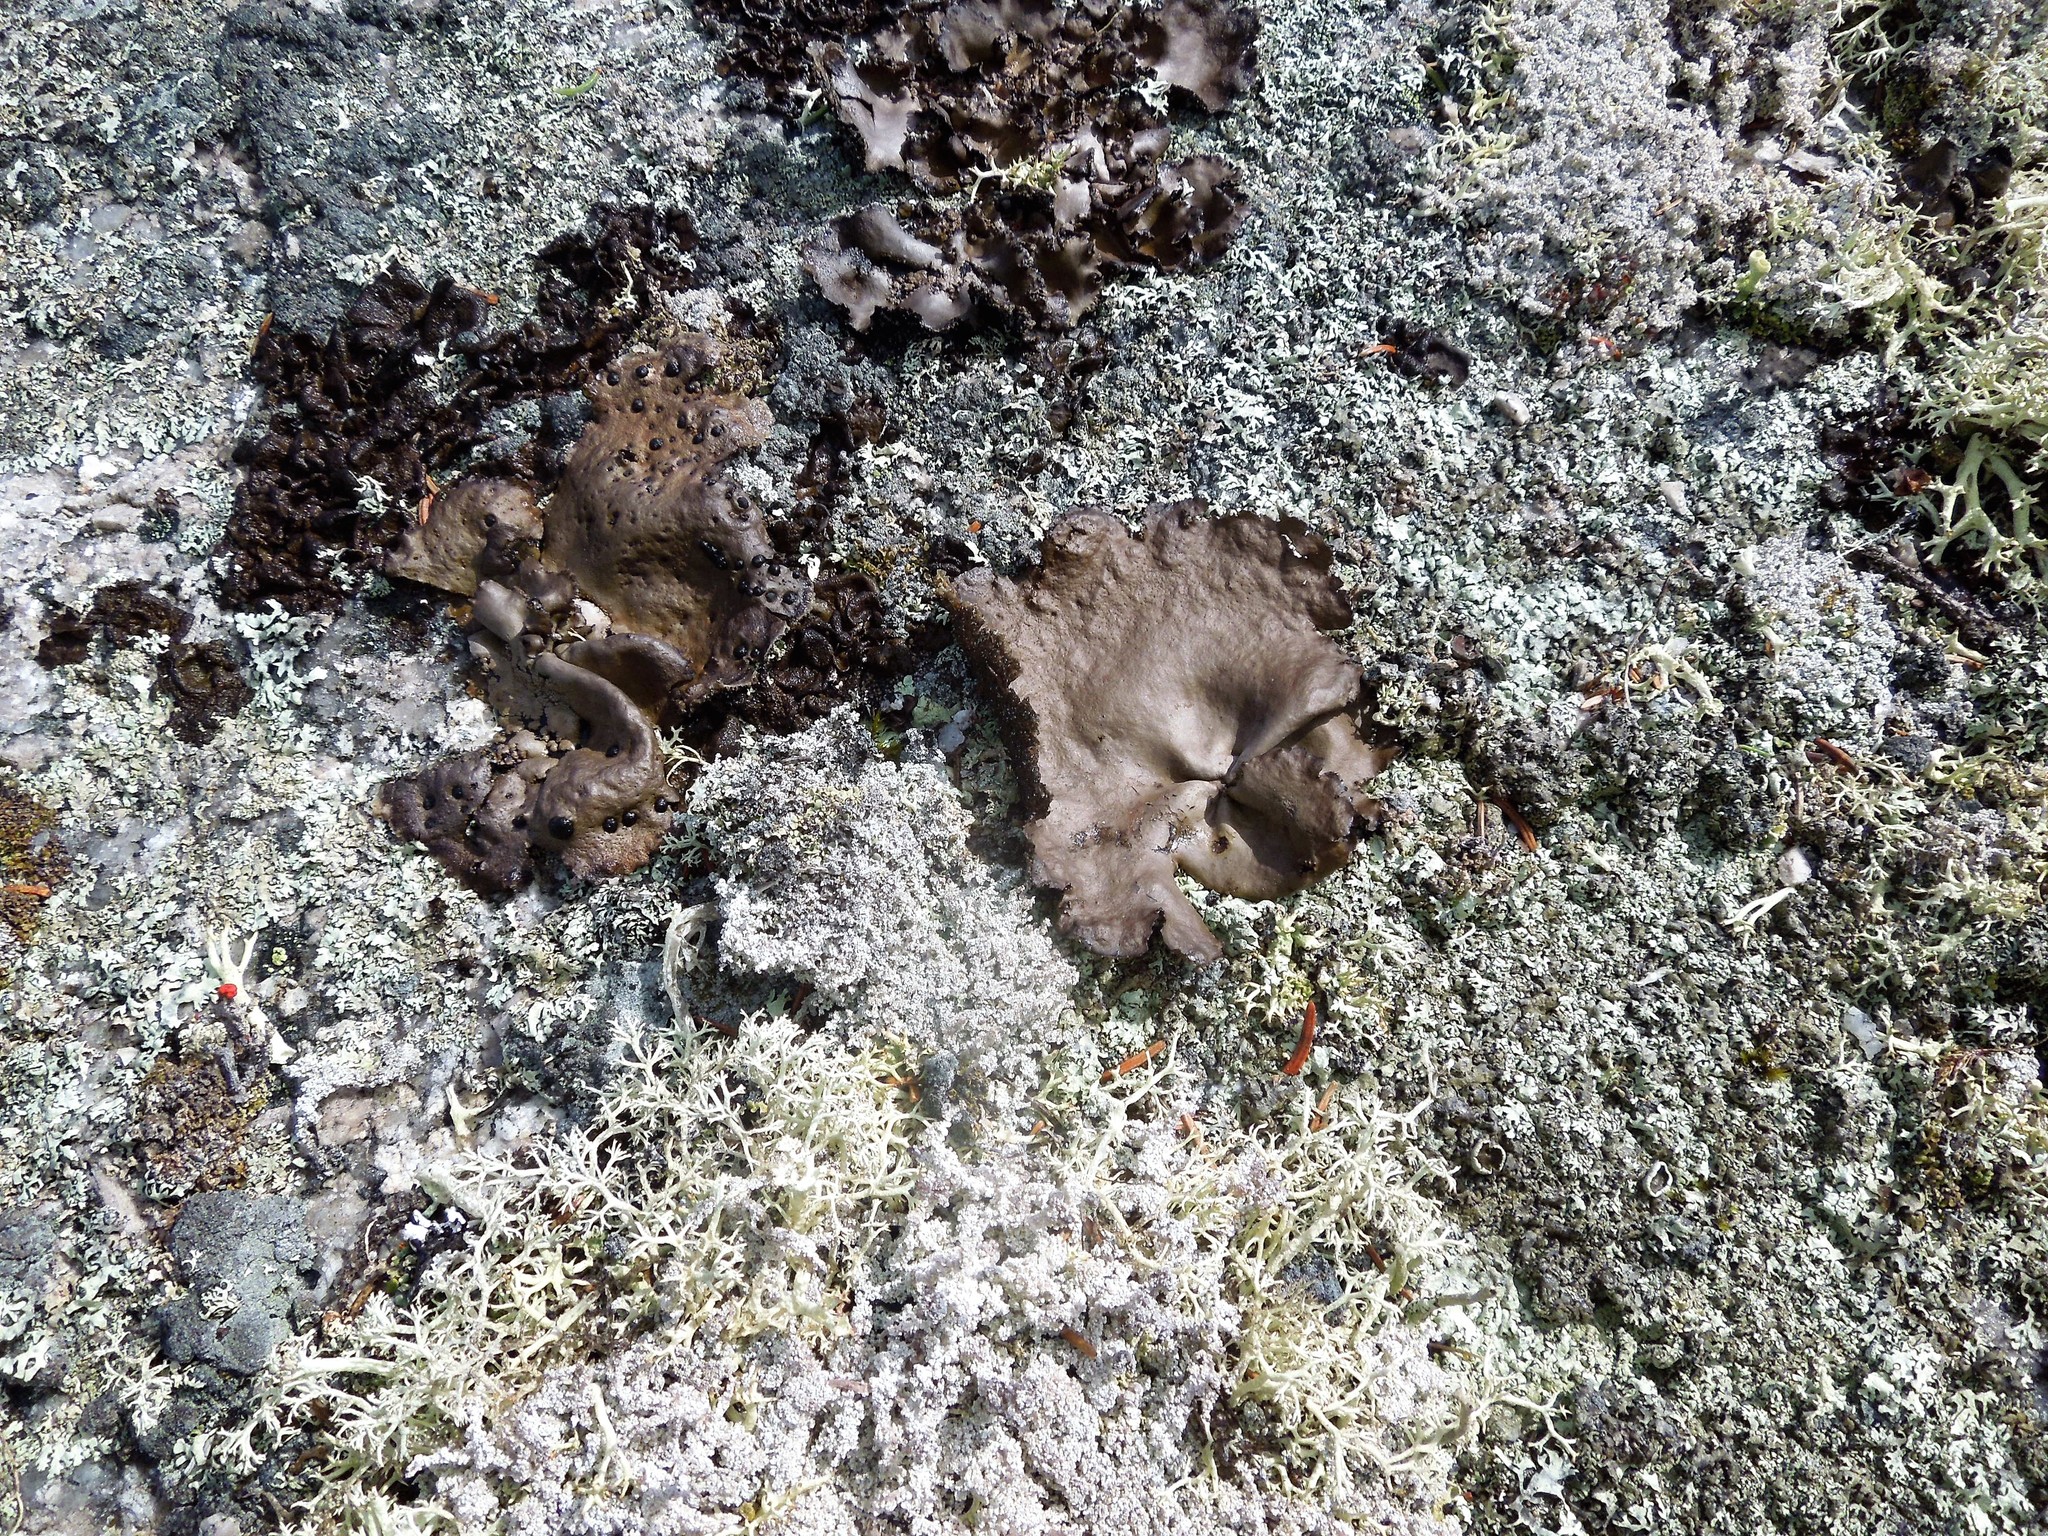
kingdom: Fungi
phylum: Ascomycota
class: Lecanoromycetes
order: Umbilicariales
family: Umbilicariaceae
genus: Umbilicaria
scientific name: Umbilicaria muhlenbergii
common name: Lesser rocktripe
